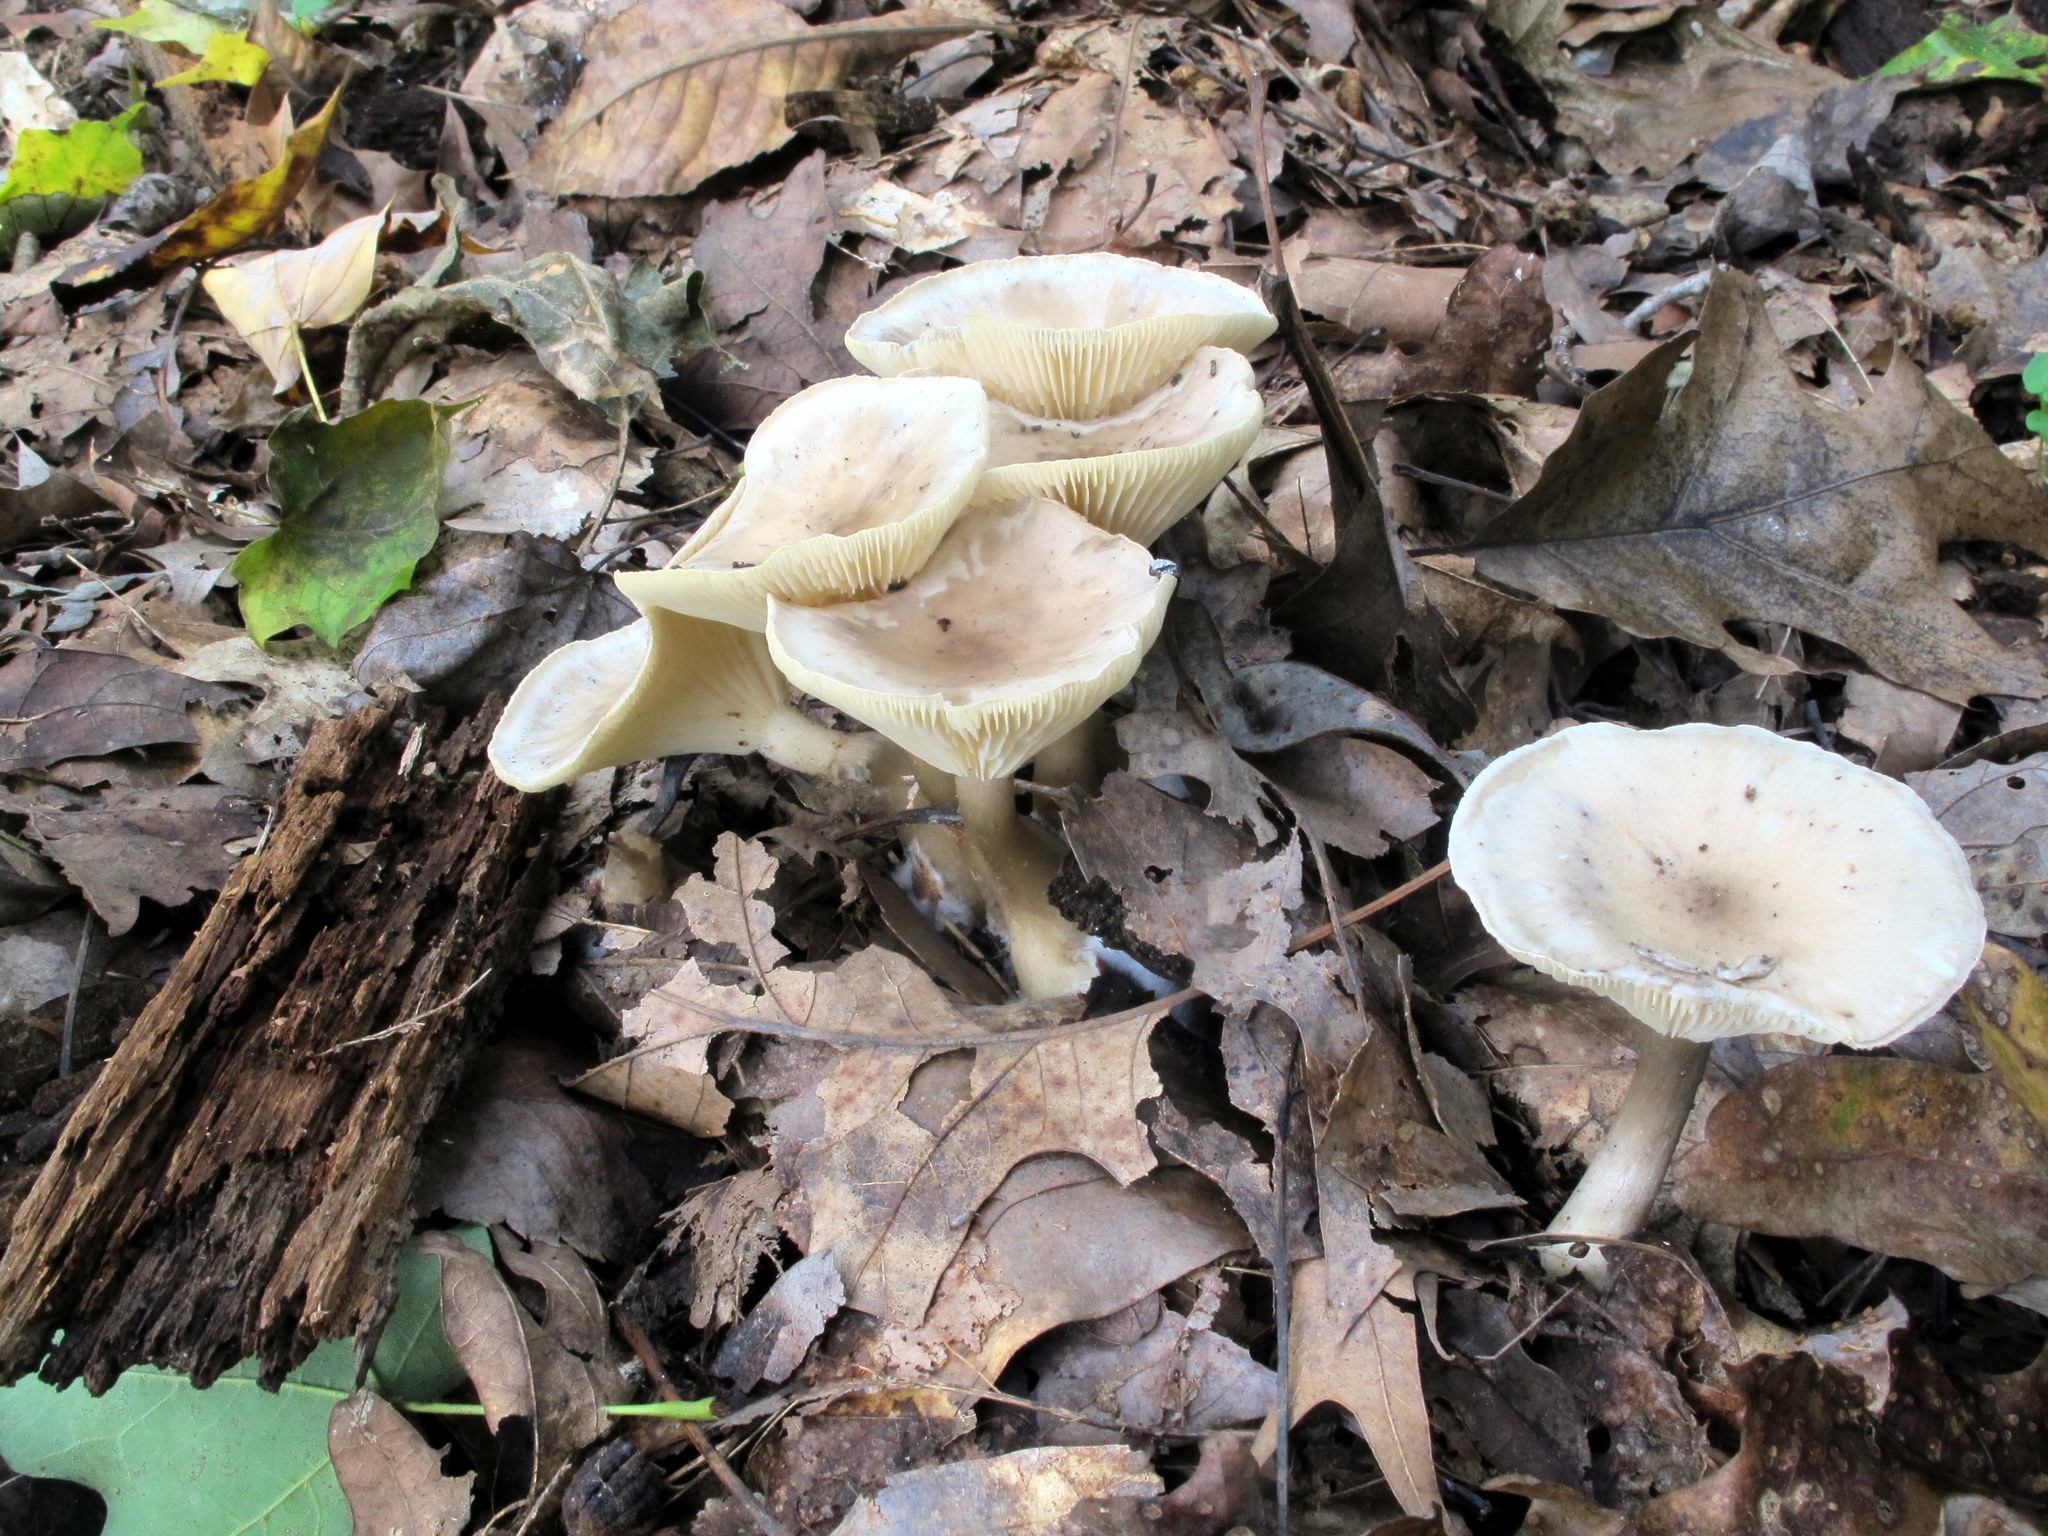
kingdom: Fungi
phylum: Basidiomycota
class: Agaricomycetes
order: Agaricales
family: Hygrophoraceae
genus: Ampulloclitocybe
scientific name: Ampulloclitocybe clavipes
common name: Club foot
